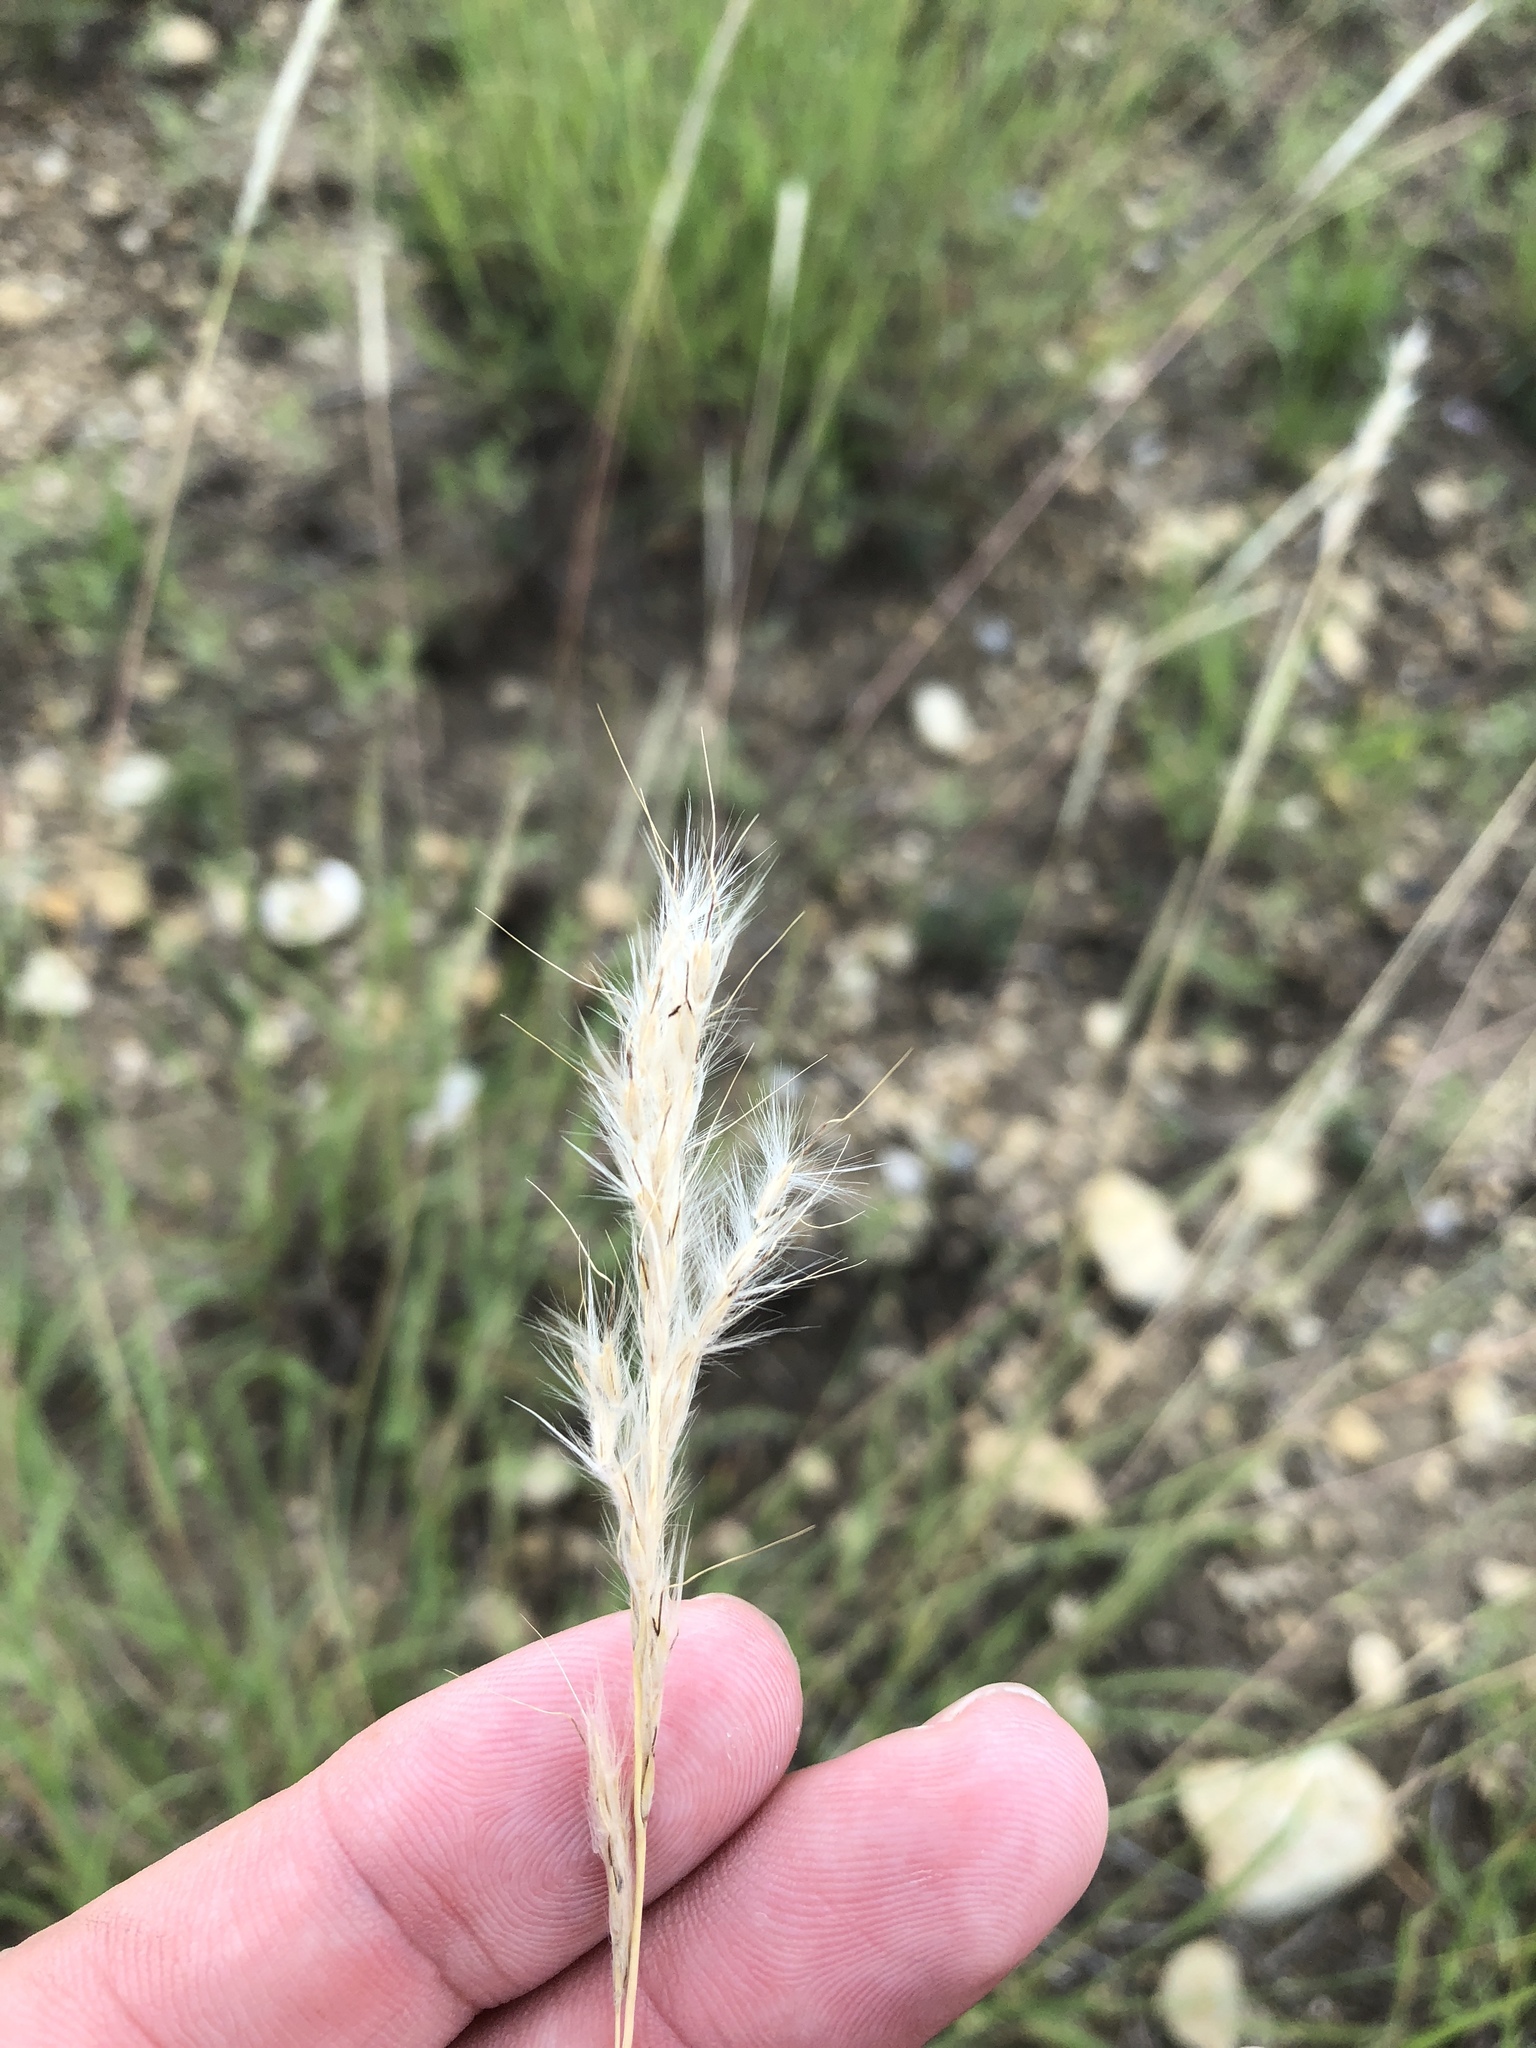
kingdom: Plantae
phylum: Tracheophyta
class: Liliopsida
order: Poales
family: Poaceae
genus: Bothriochloa
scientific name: Bothriochloa torreyana
